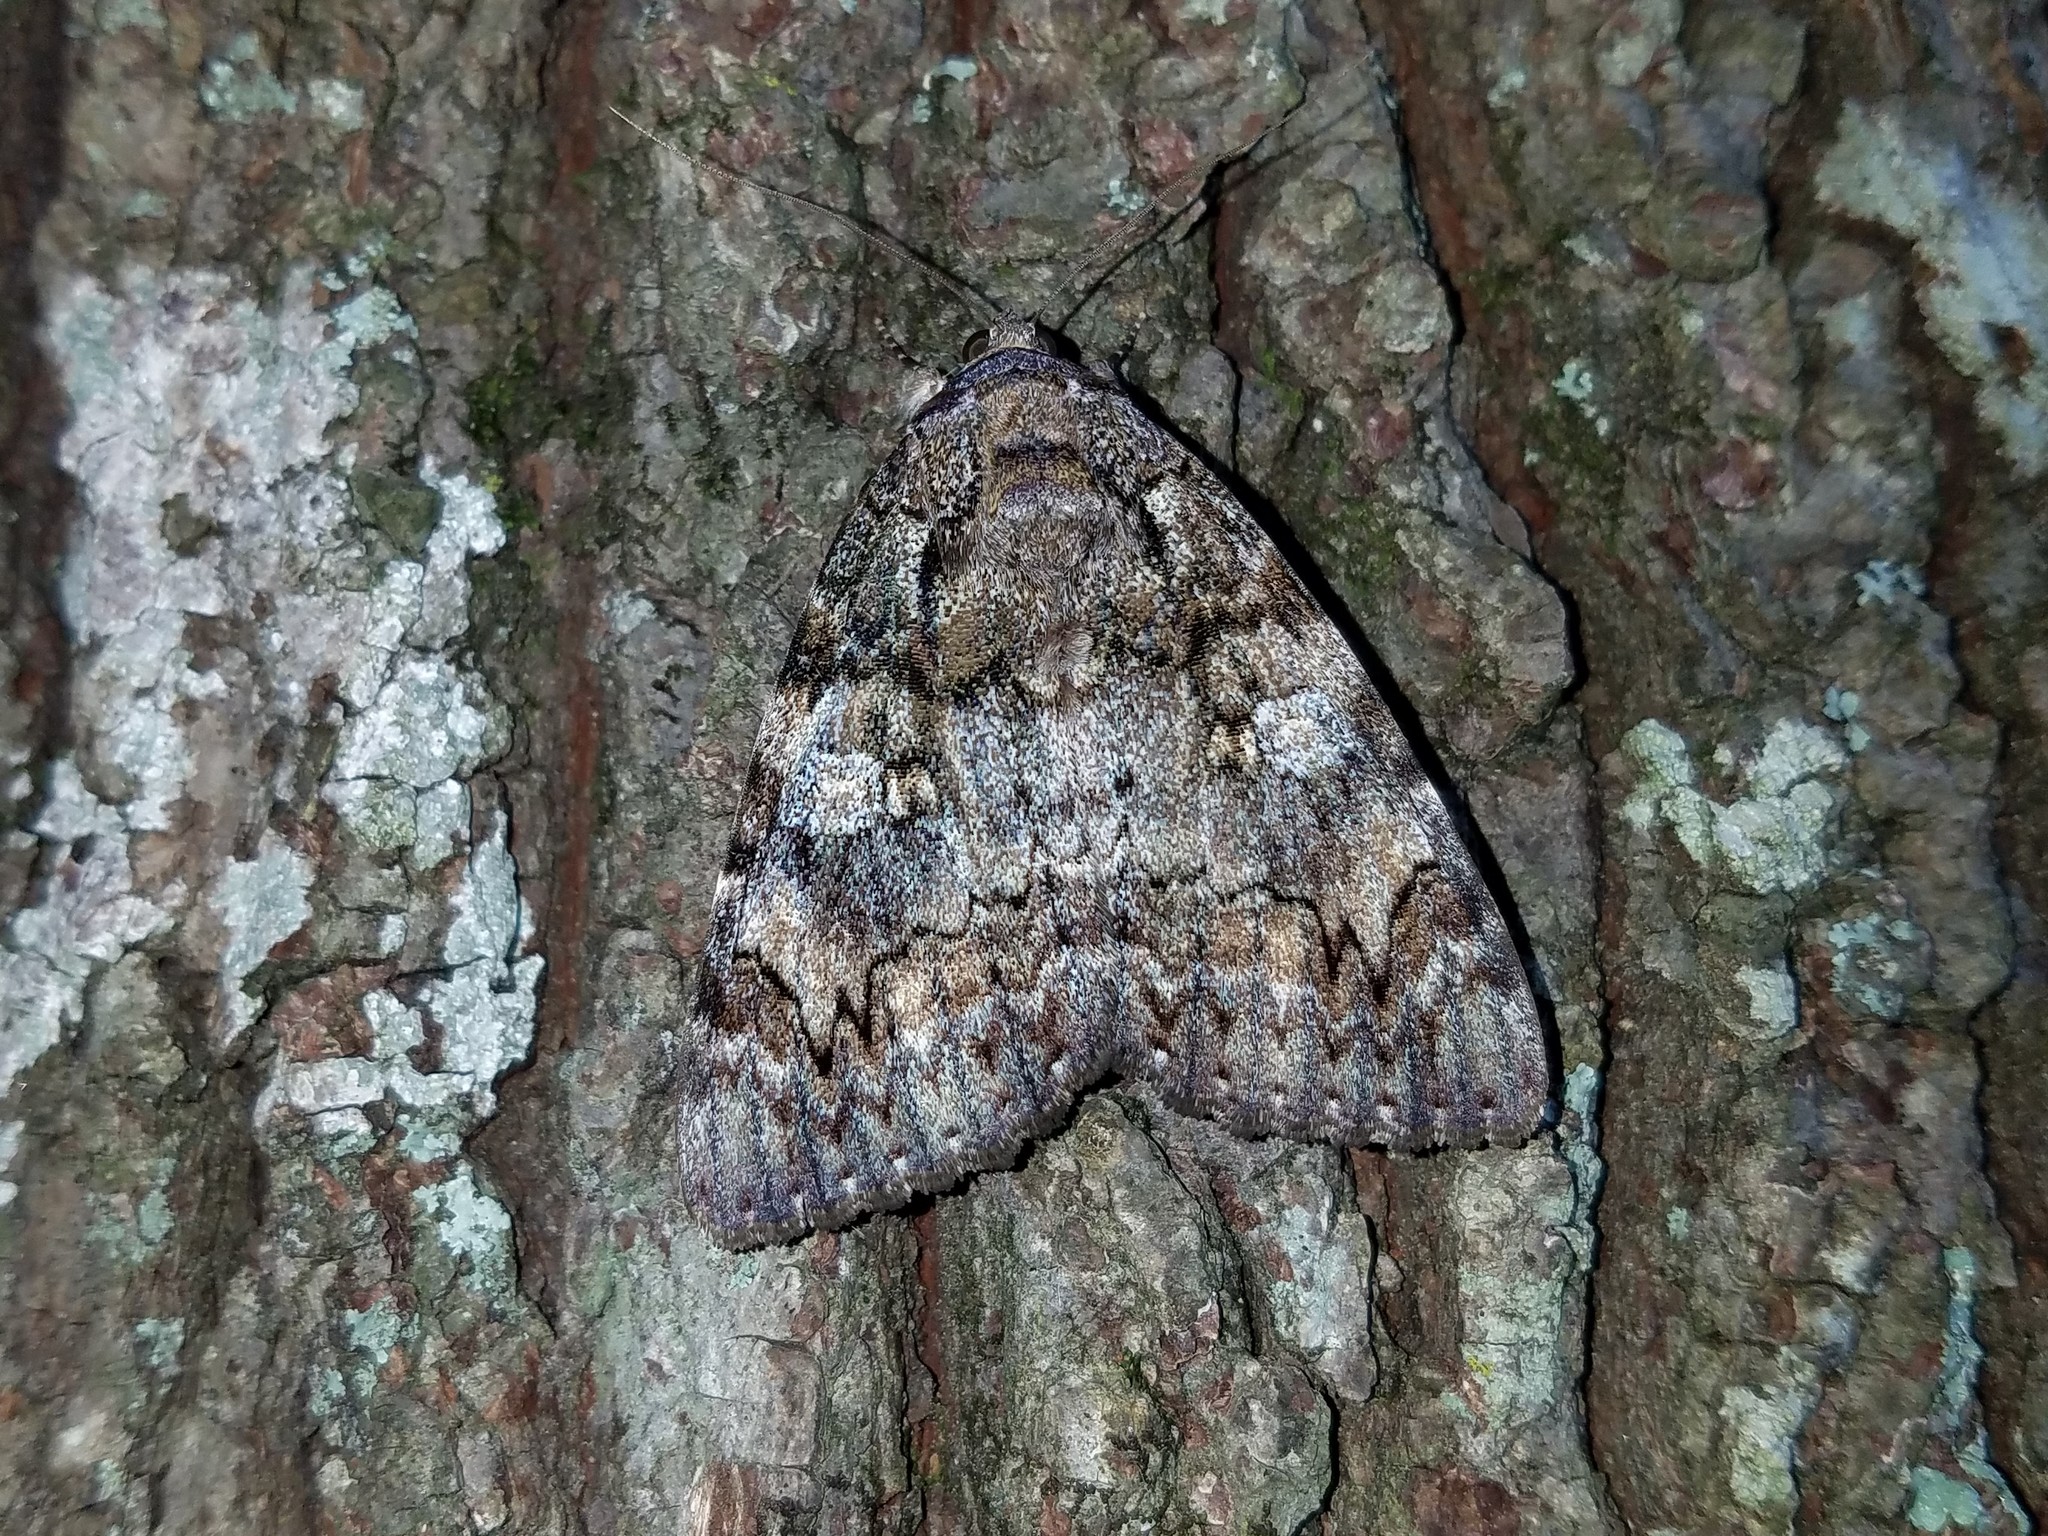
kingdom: Animalia
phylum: Arthropoda
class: Insecta
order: Lepidoptera
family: Erebidae
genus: Catocala
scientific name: Catocala ilia
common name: Ilia underwing
